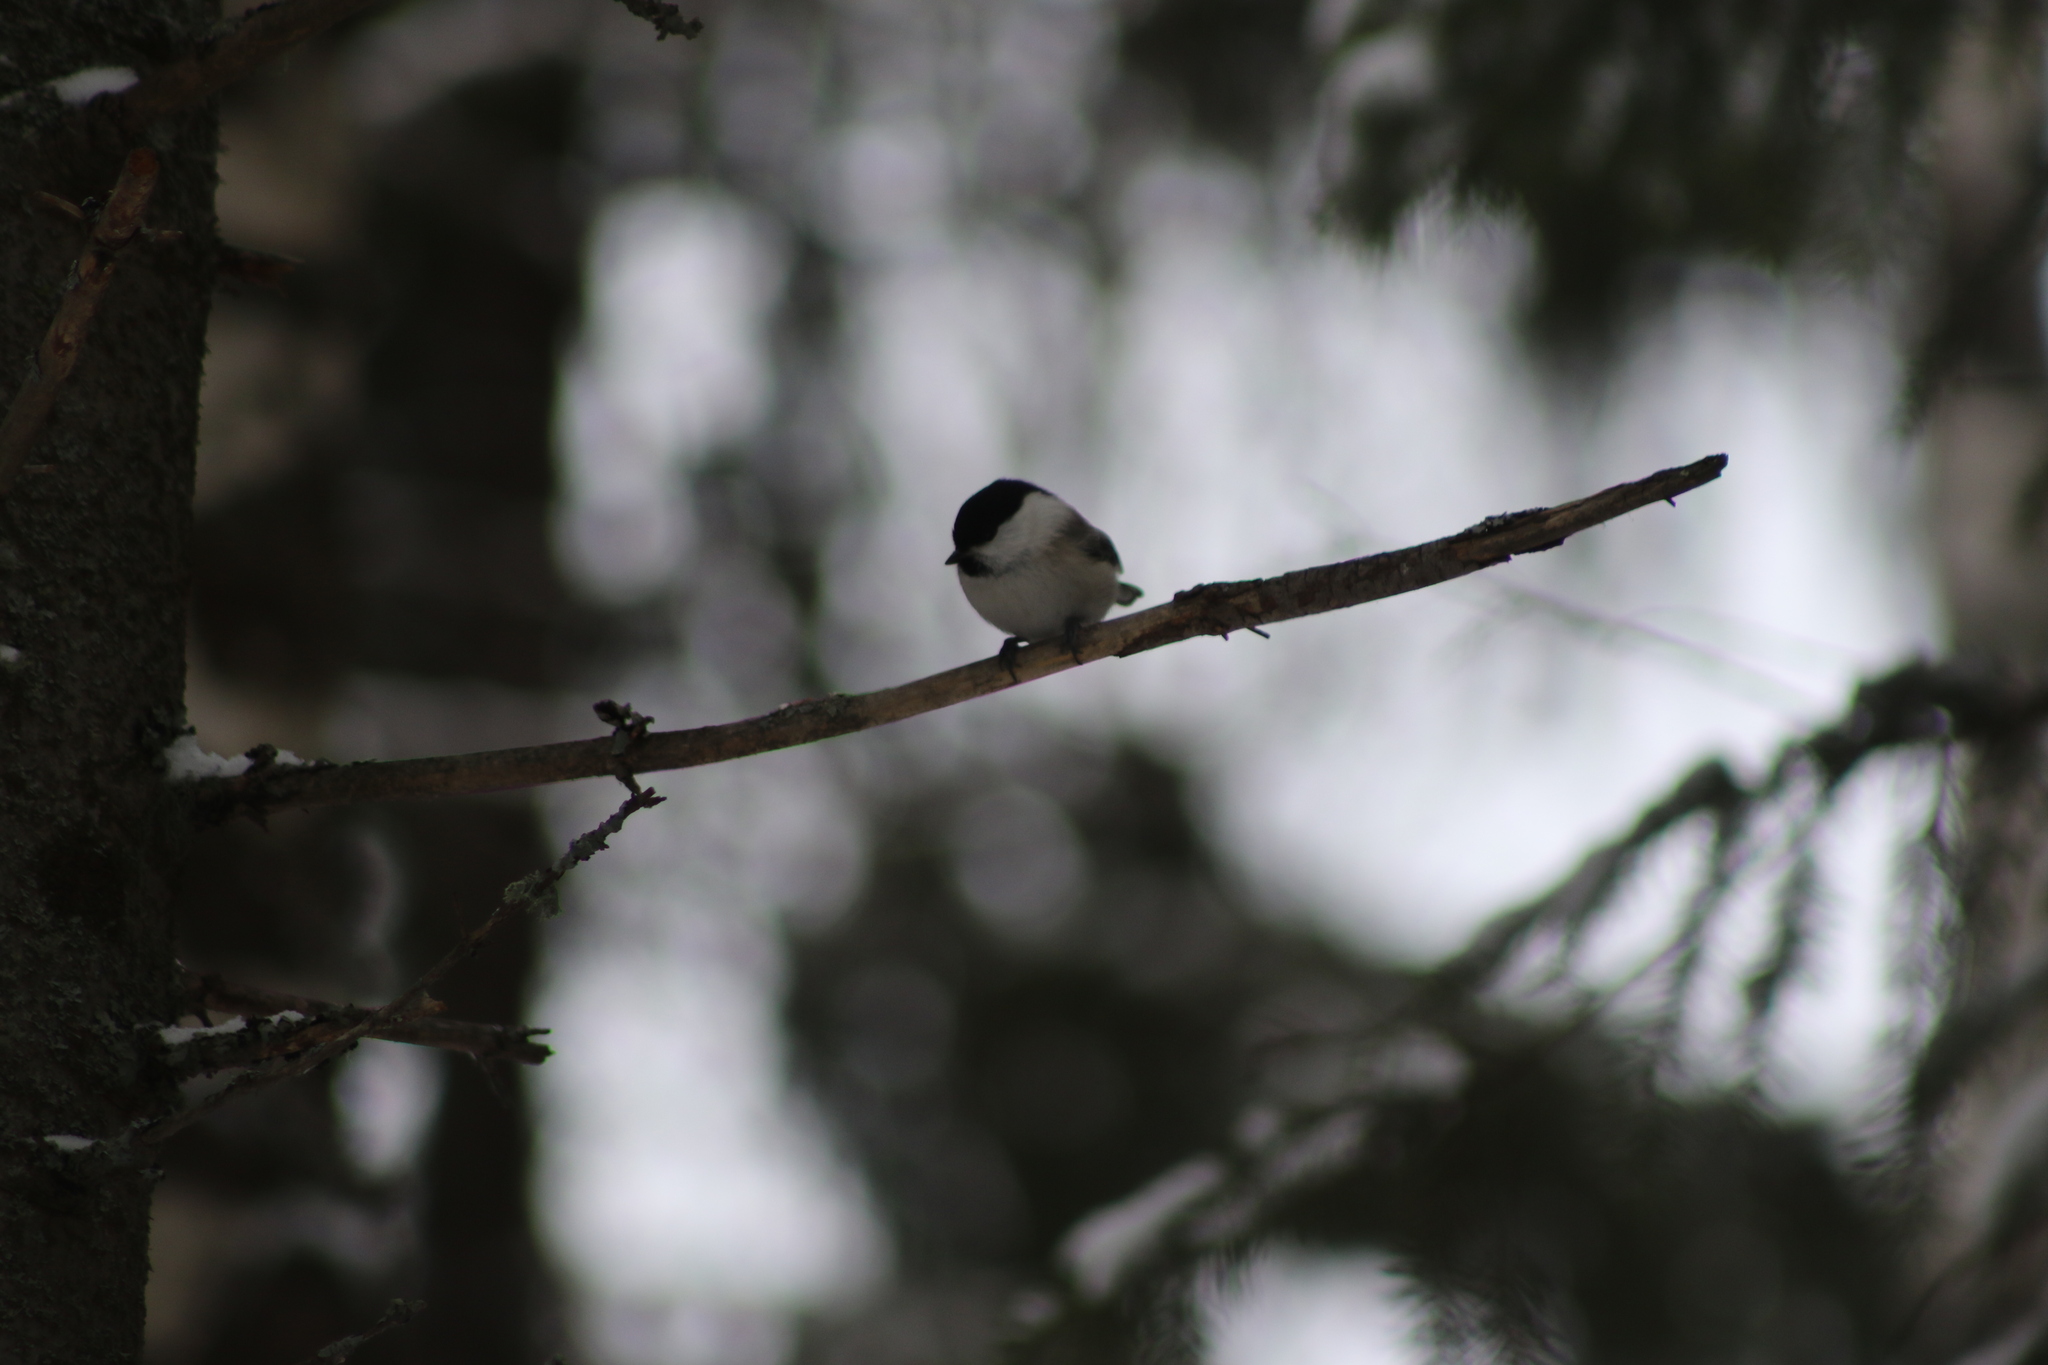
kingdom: Animalia
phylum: Chordata
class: Aves
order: Passeriformes
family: Paridae
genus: Poecile
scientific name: Poecile montanus
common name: Willow tit
